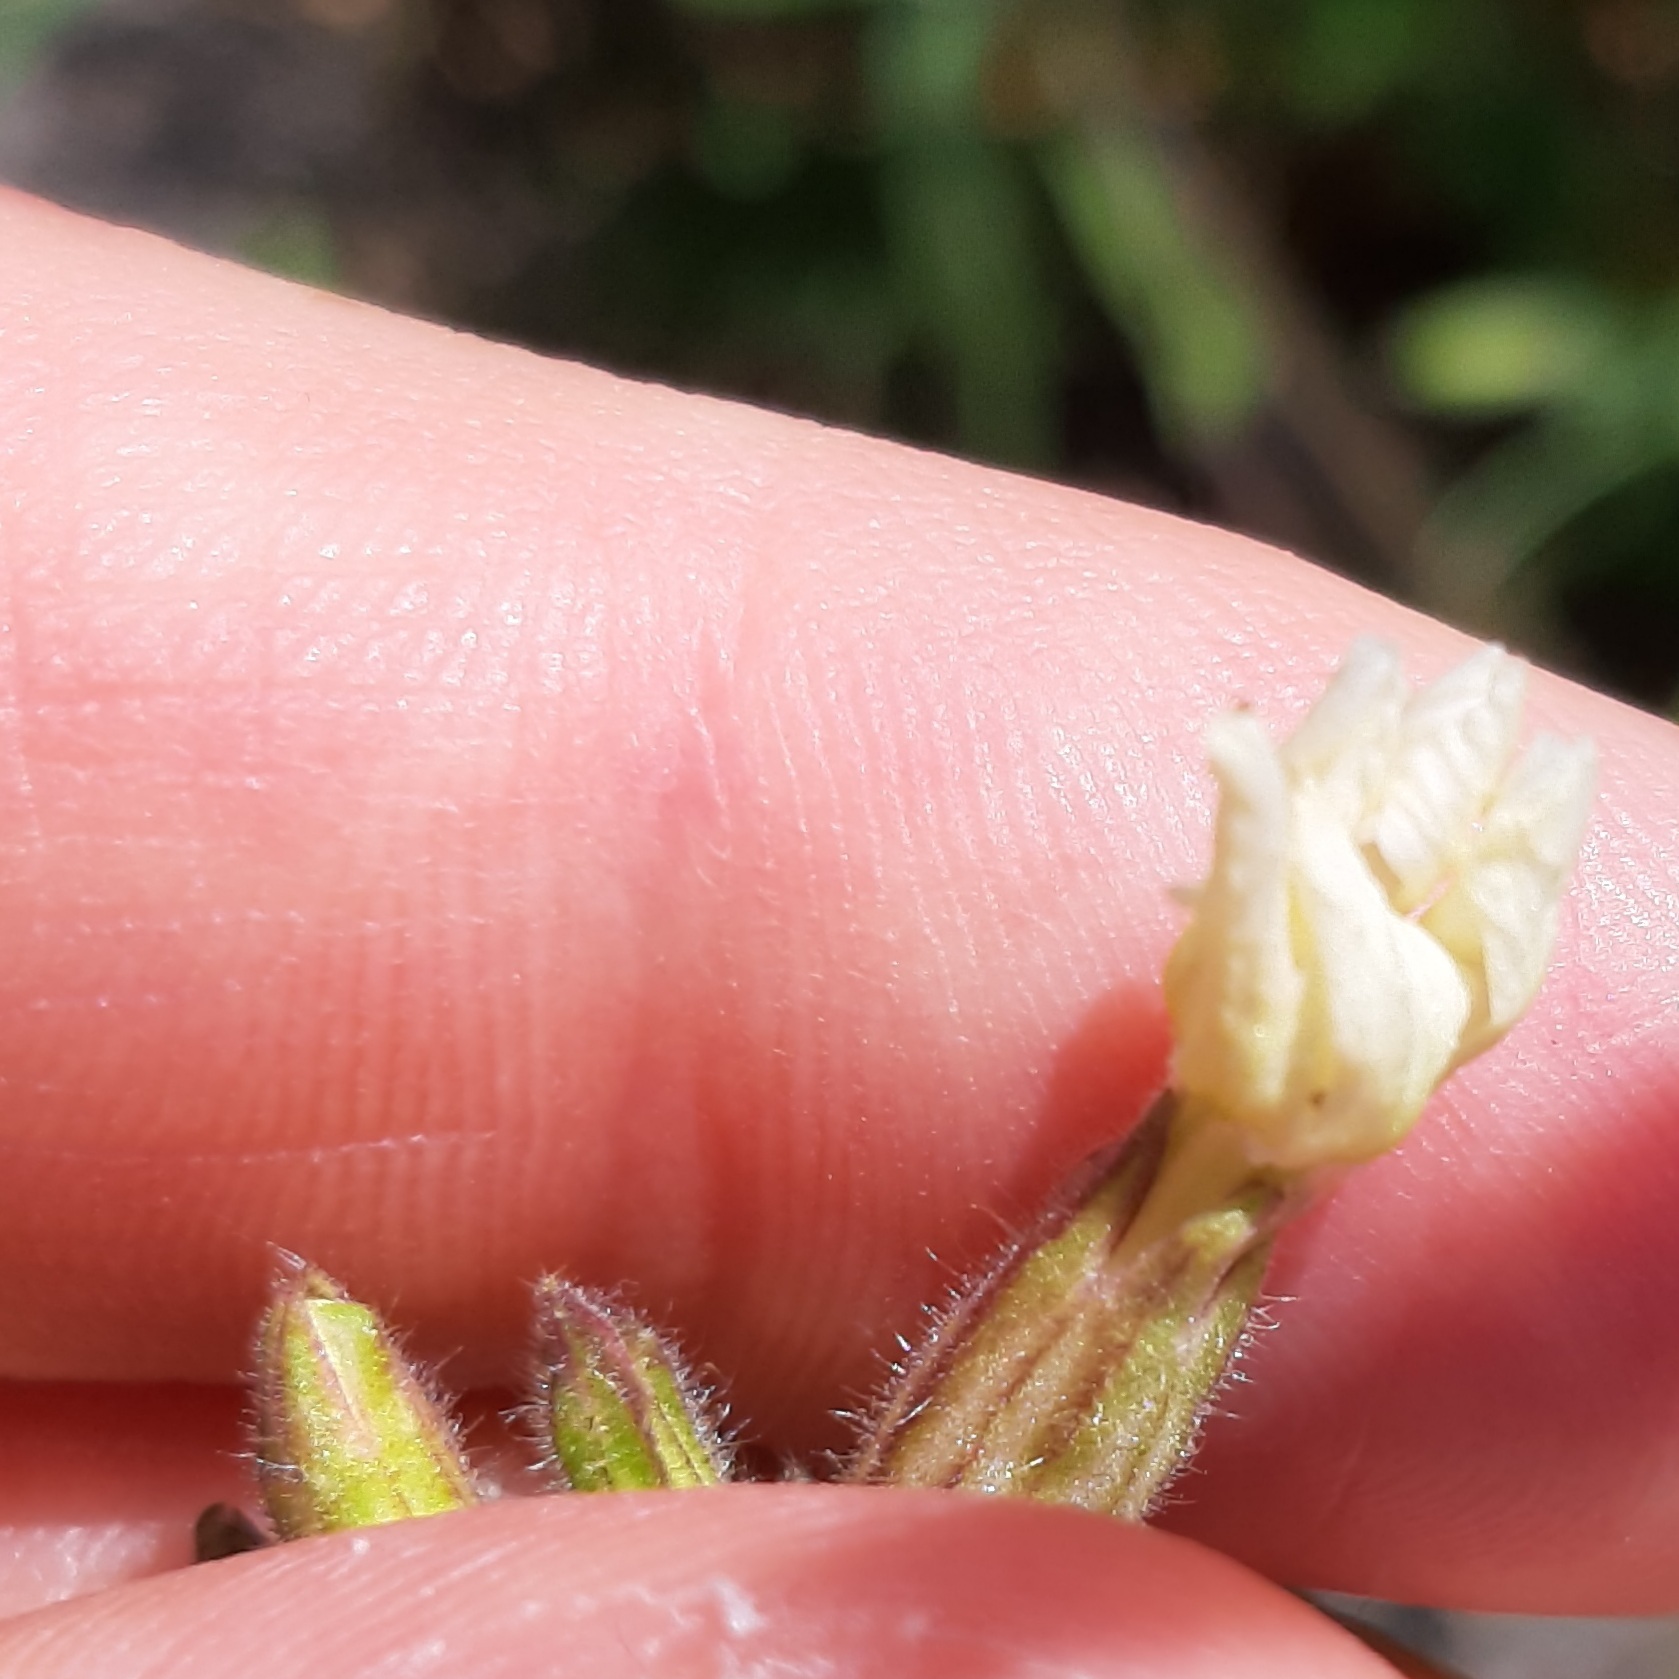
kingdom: Plantae
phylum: Tracheophyta
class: Magnoliopsida
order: Caryophyllales
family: Caryophyllaceae
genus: Silene
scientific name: Silene latifolia
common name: White campion
